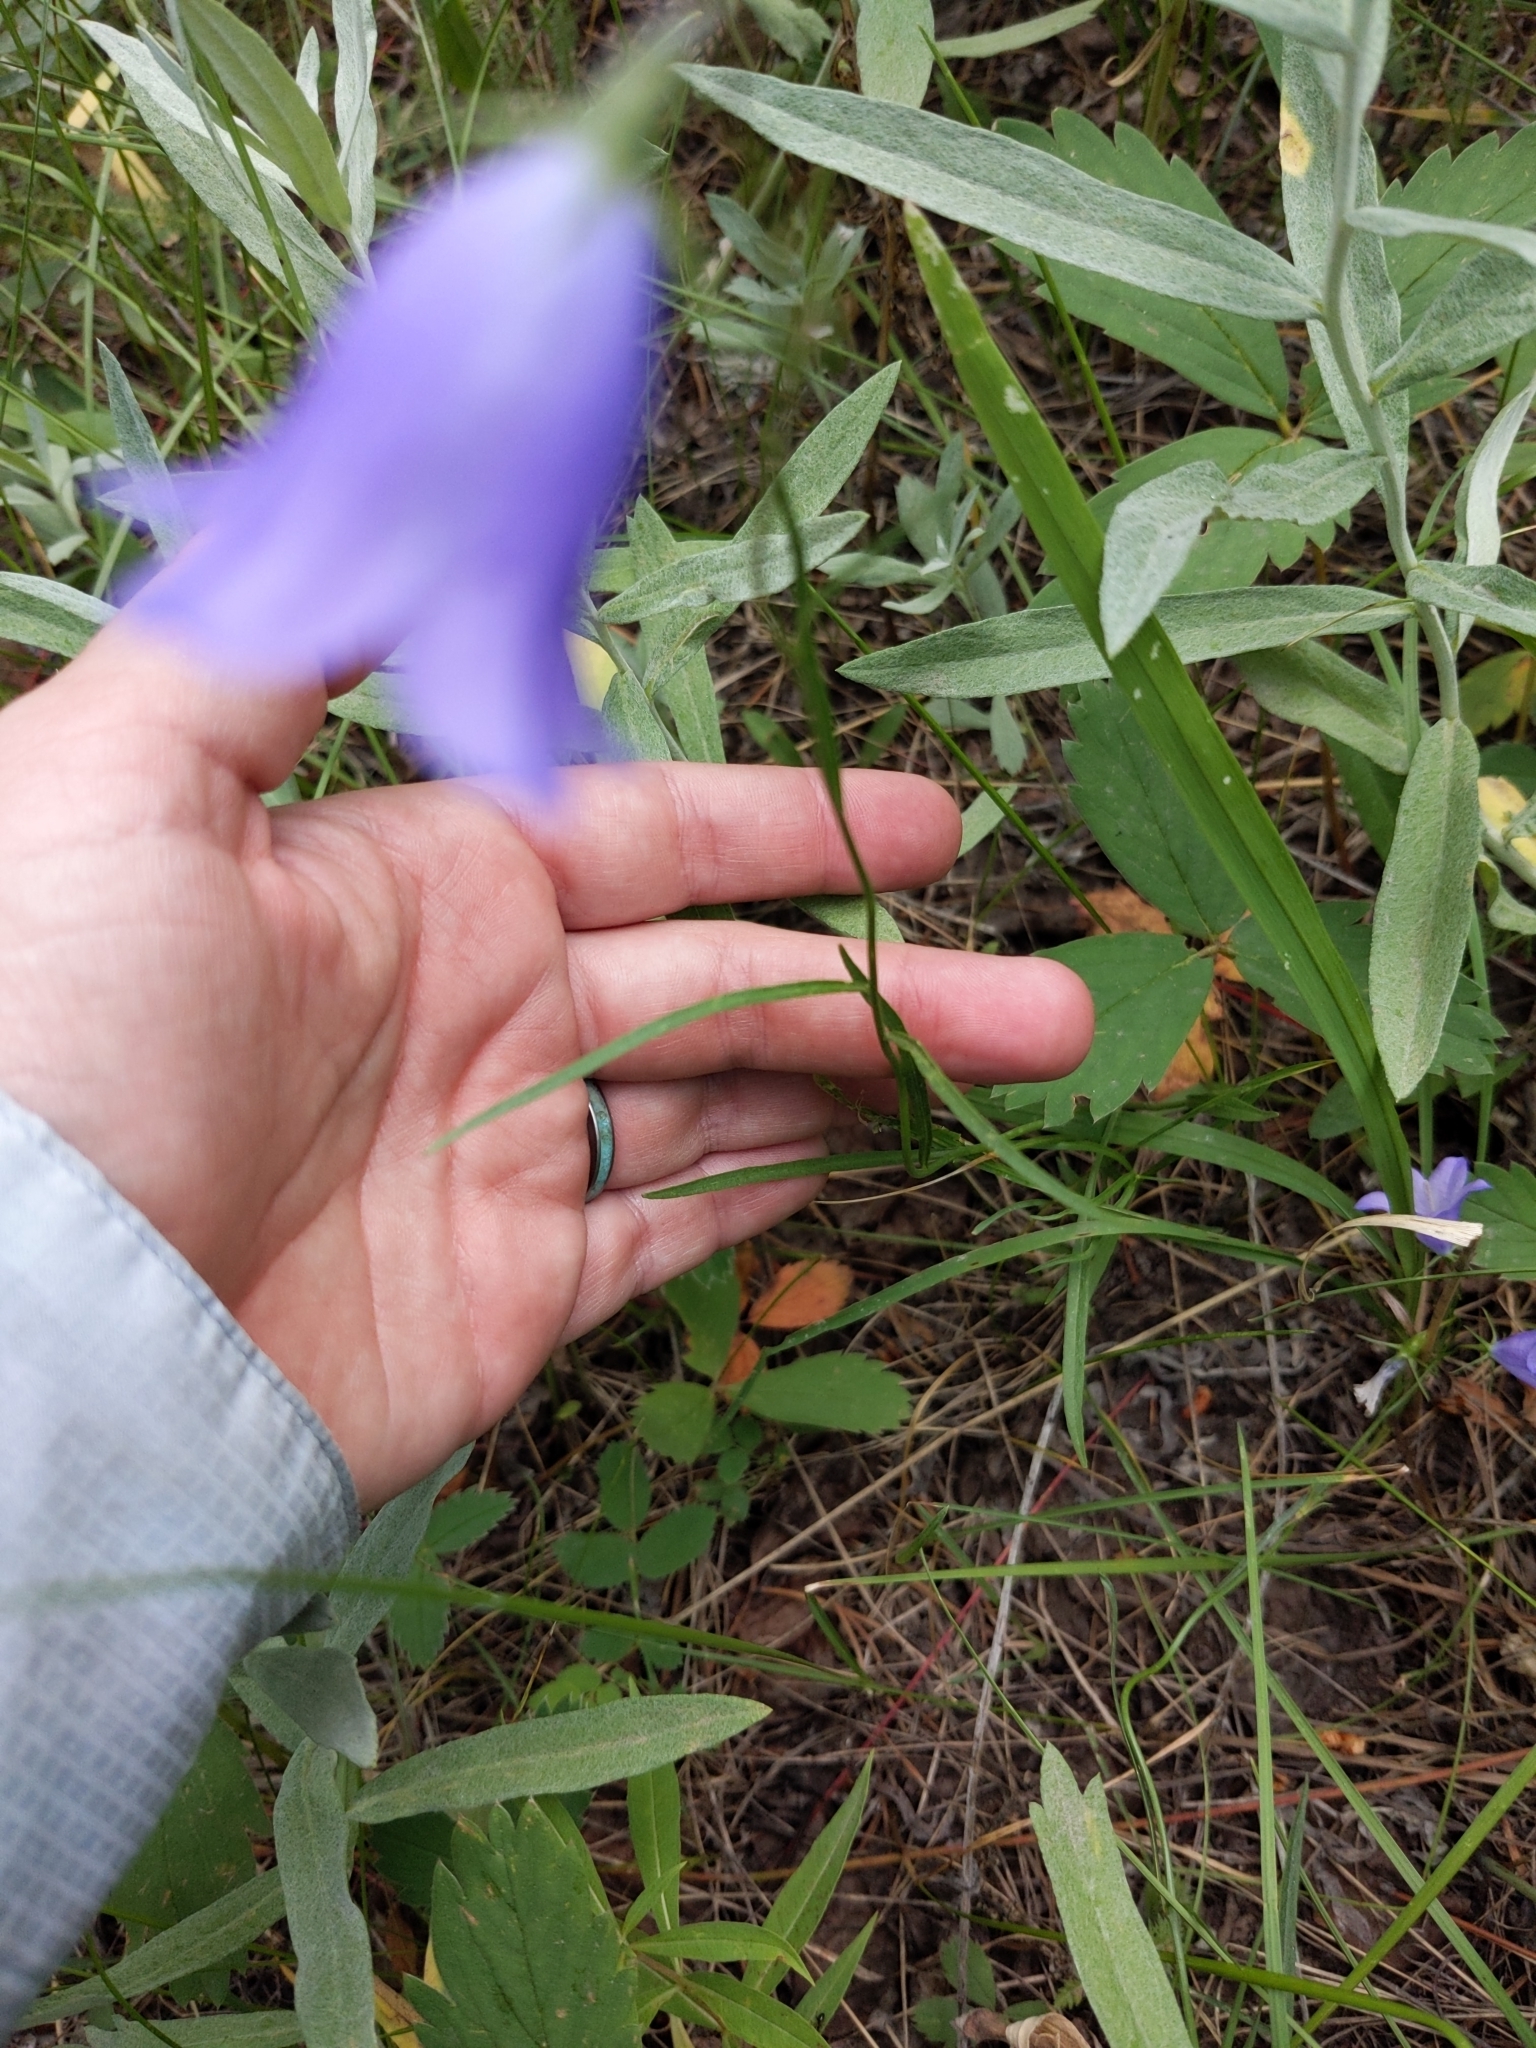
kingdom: Plantae
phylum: Tracheophyta
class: Magnoliopsida
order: Asterales
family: Campanulaceae
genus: Campanula
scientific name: Campanula petiolata
